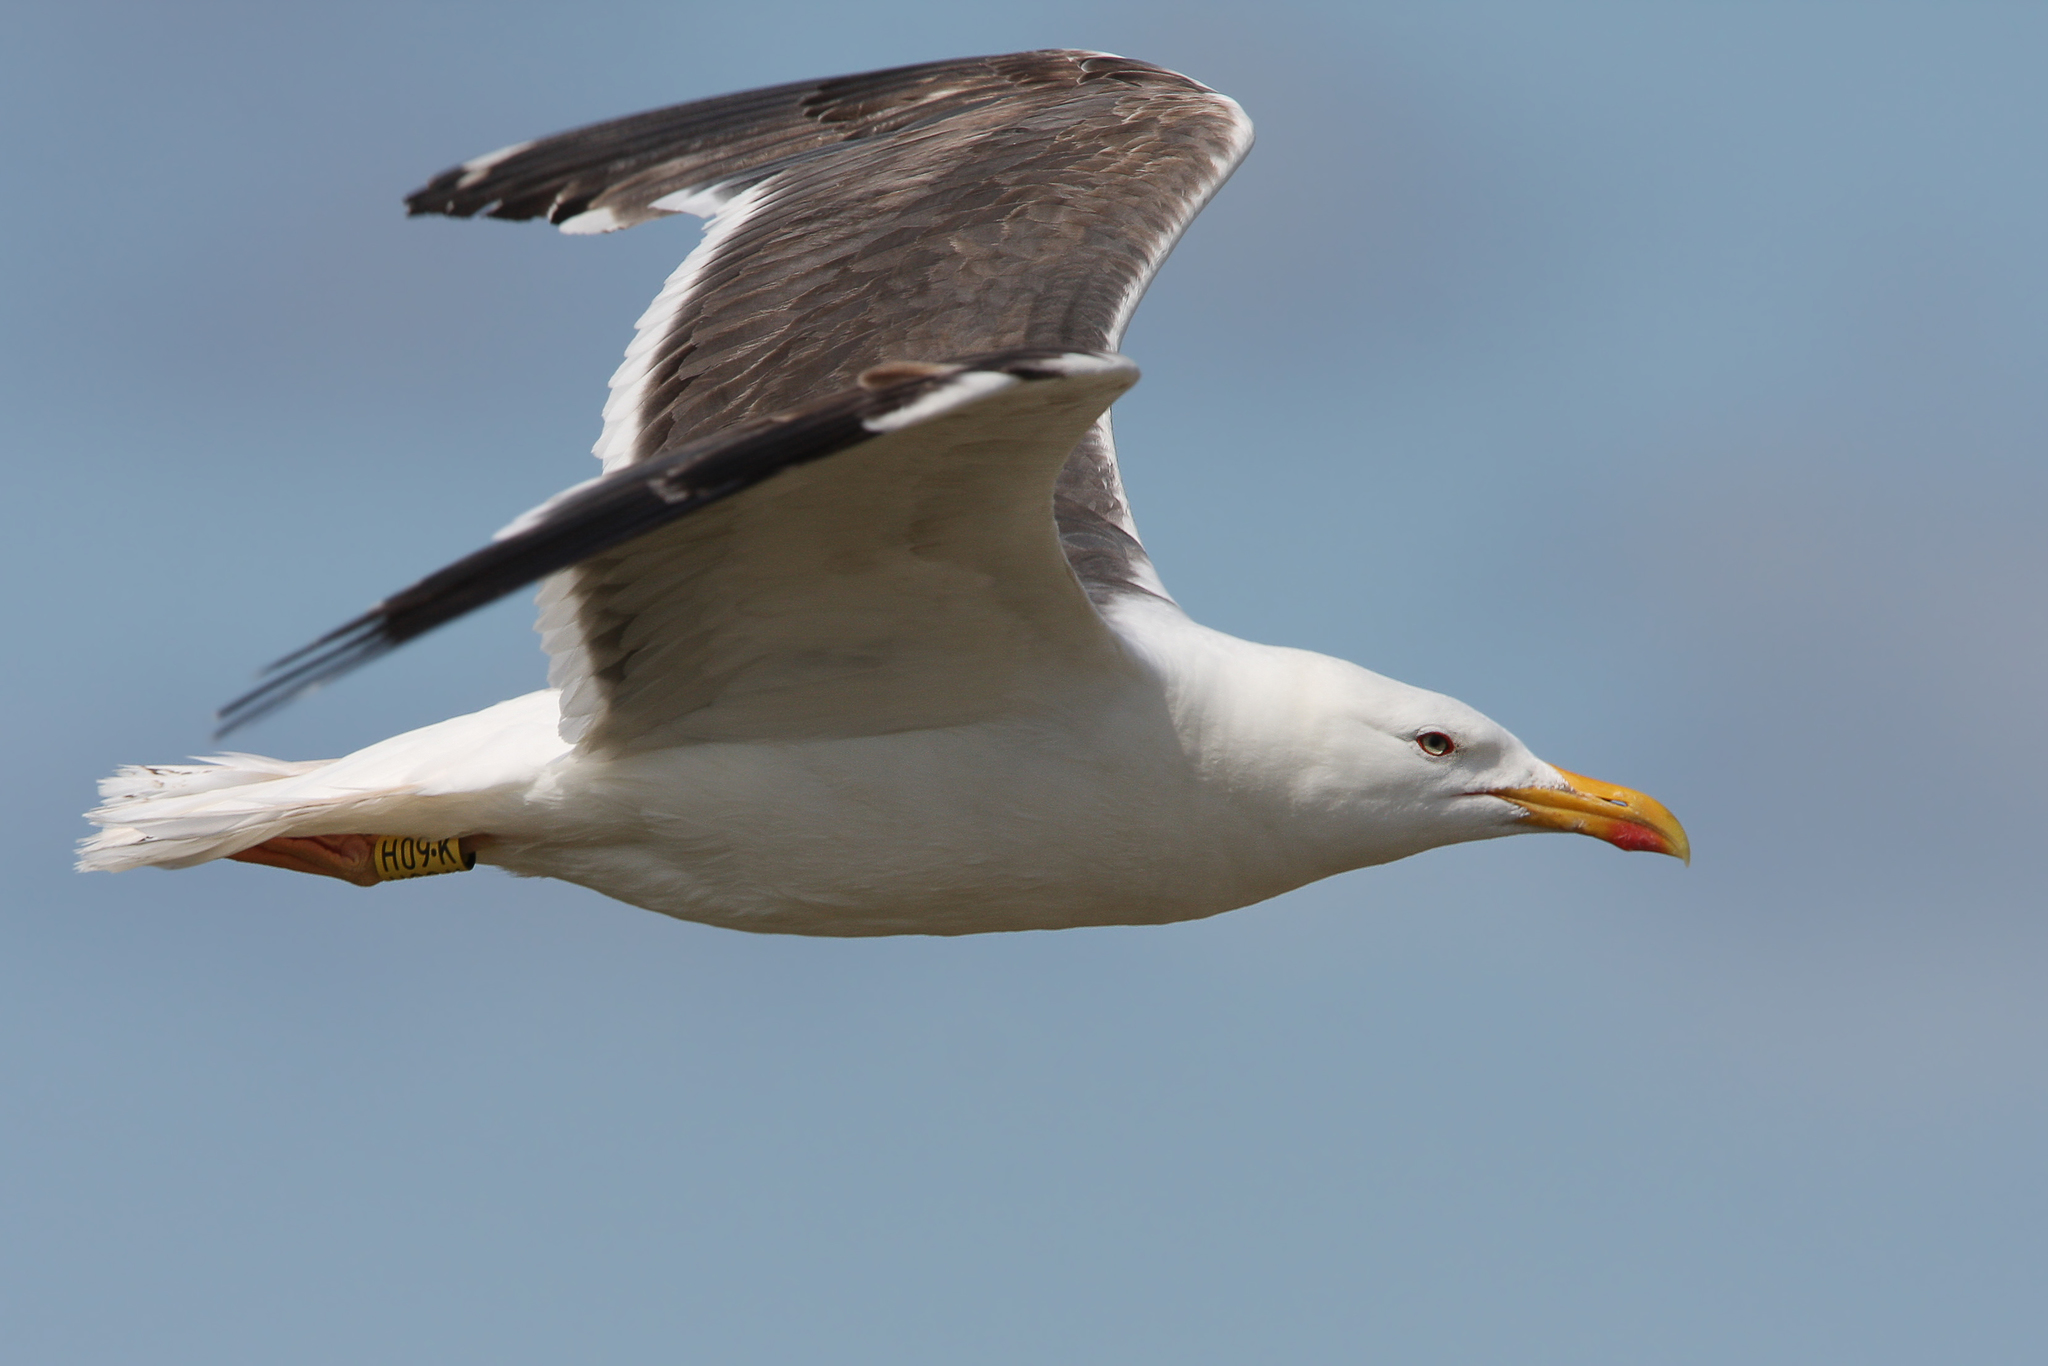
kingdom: Animalia
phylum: Chordata
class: Aves
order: Charadriiformes
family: Laridae
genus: Larus
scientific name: Larus fuscus
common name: Lesser black-backed gull
